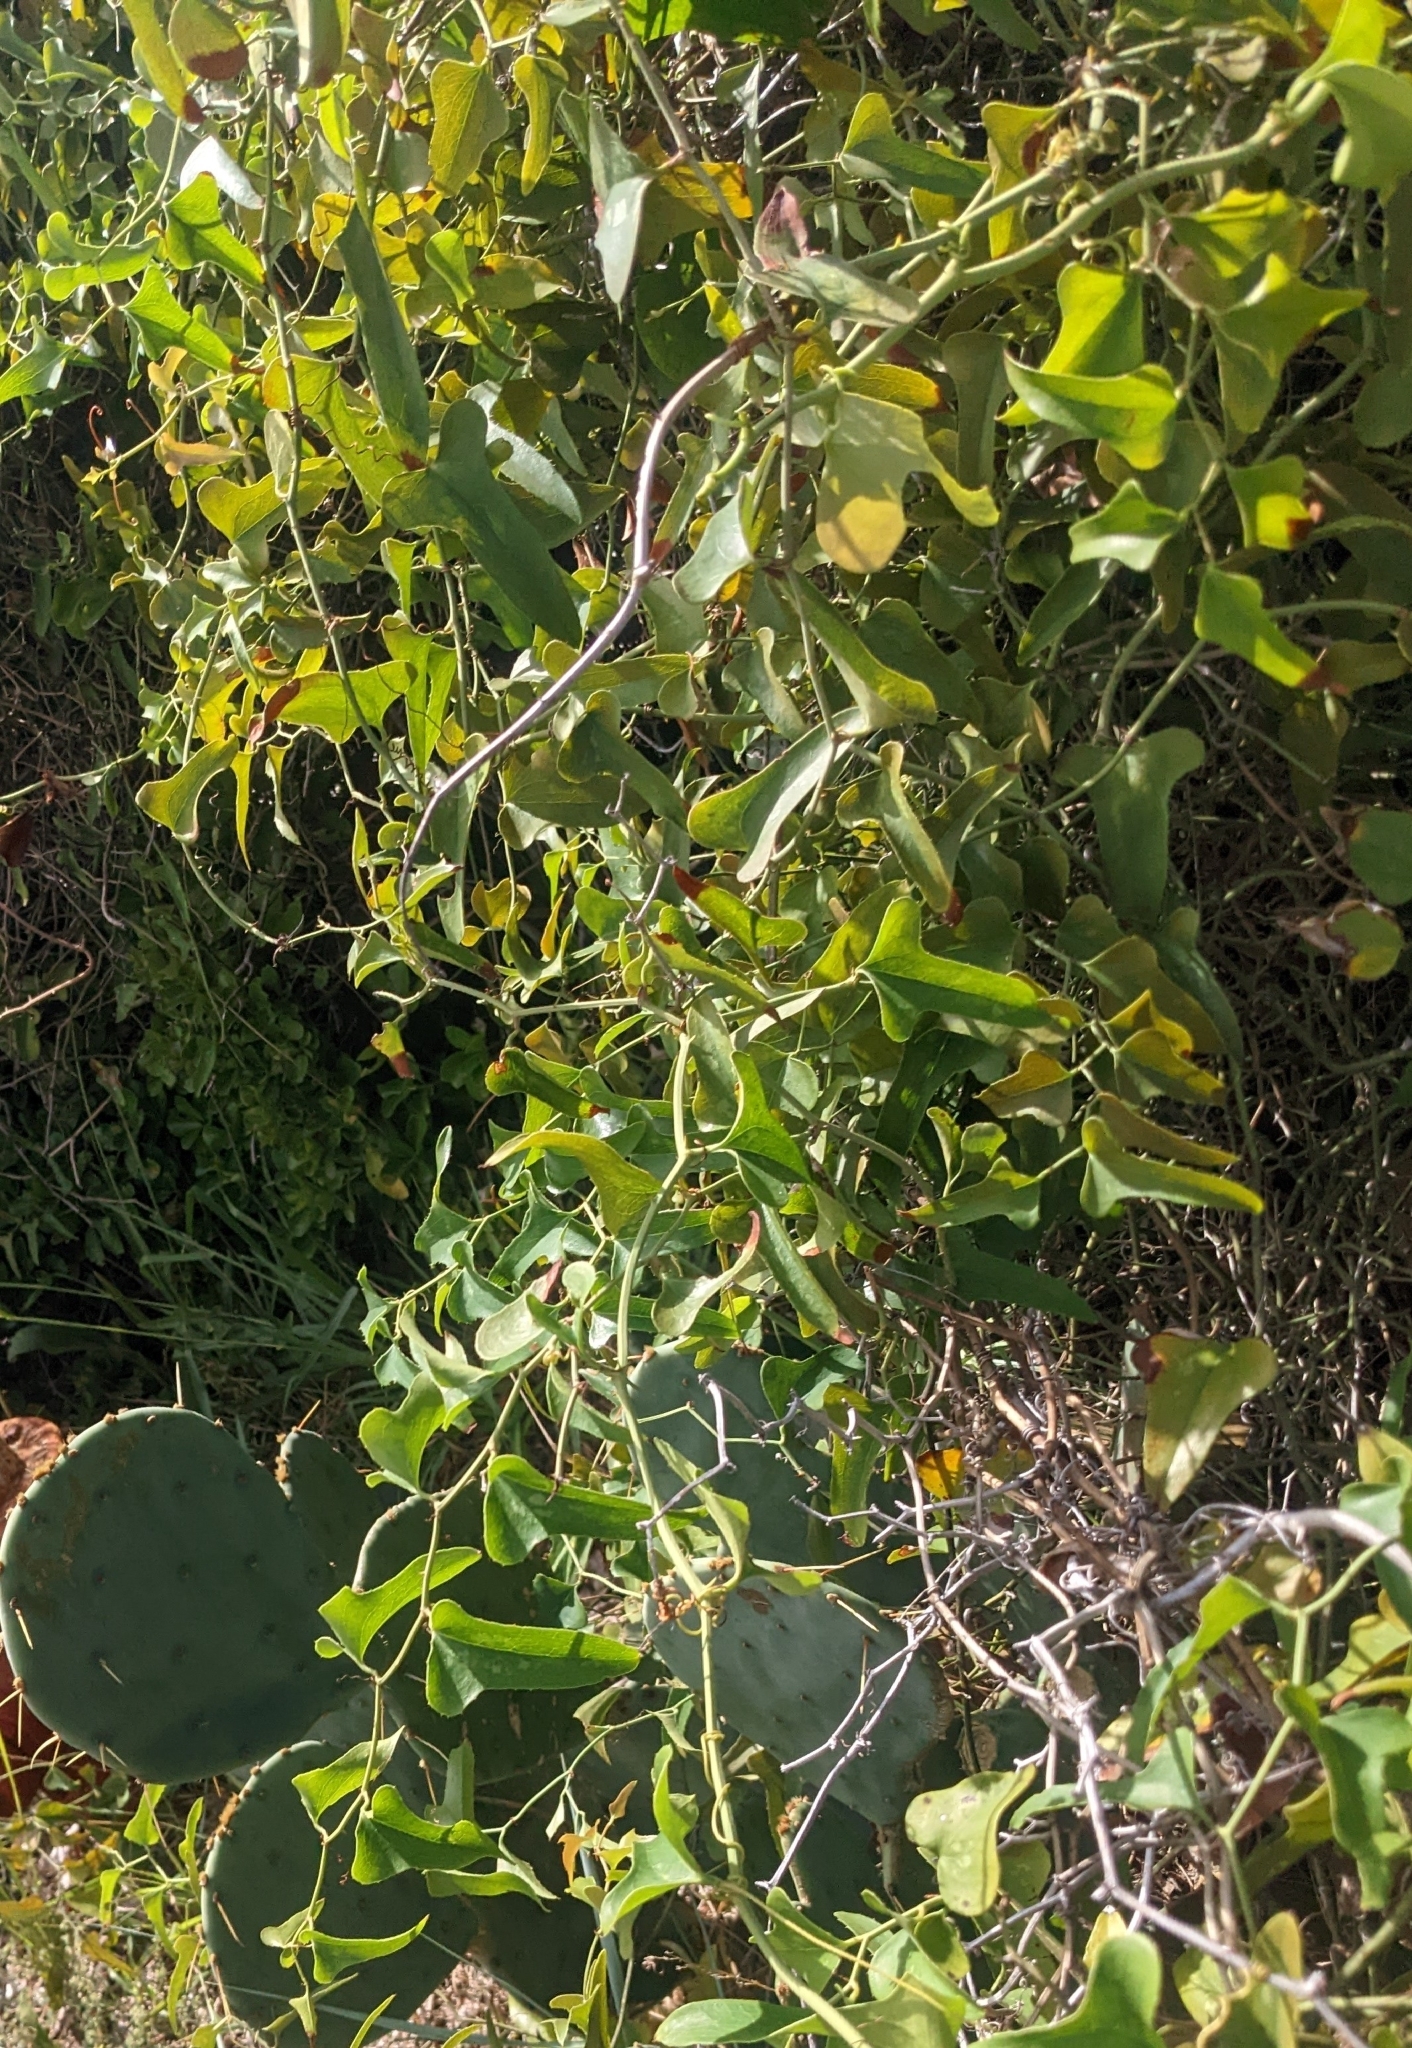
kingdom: Plantae
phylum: Tracheophyta
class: Liliopsida
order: Liliales
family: Smilacaceae
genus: Smilax
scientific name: Smilax bona-nox
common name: Catbrier
